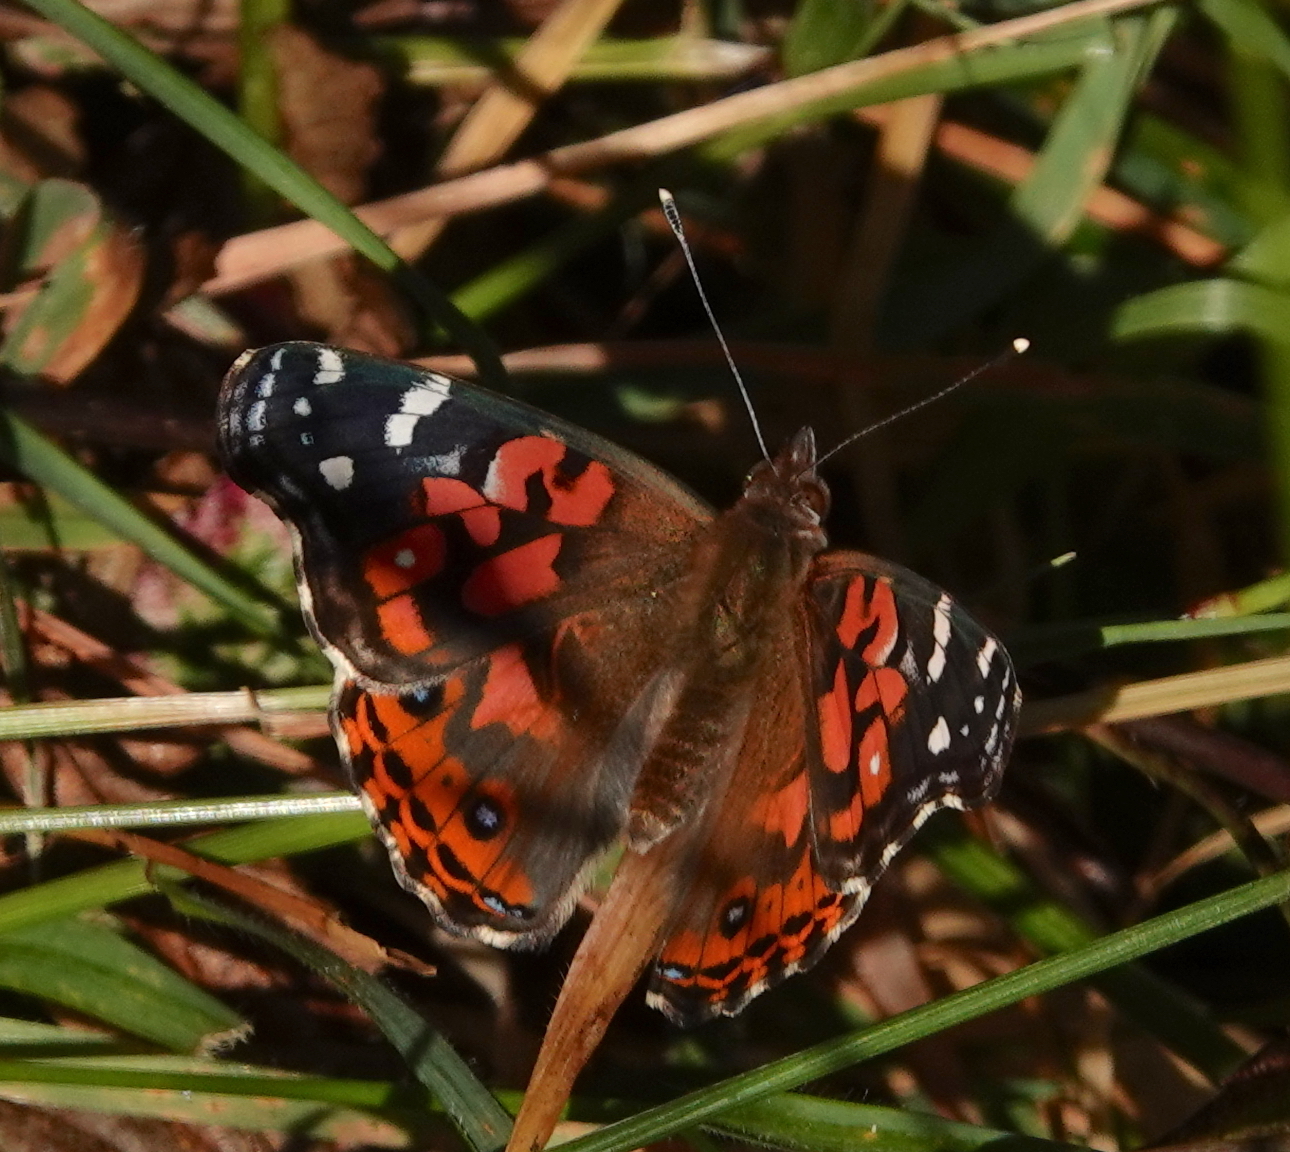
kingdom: Animalia
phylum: Arthropoda
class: Insecta
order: Lepidoptera
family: Nymphalidae
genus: Vanessa
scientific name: Vanessa braziliensis
